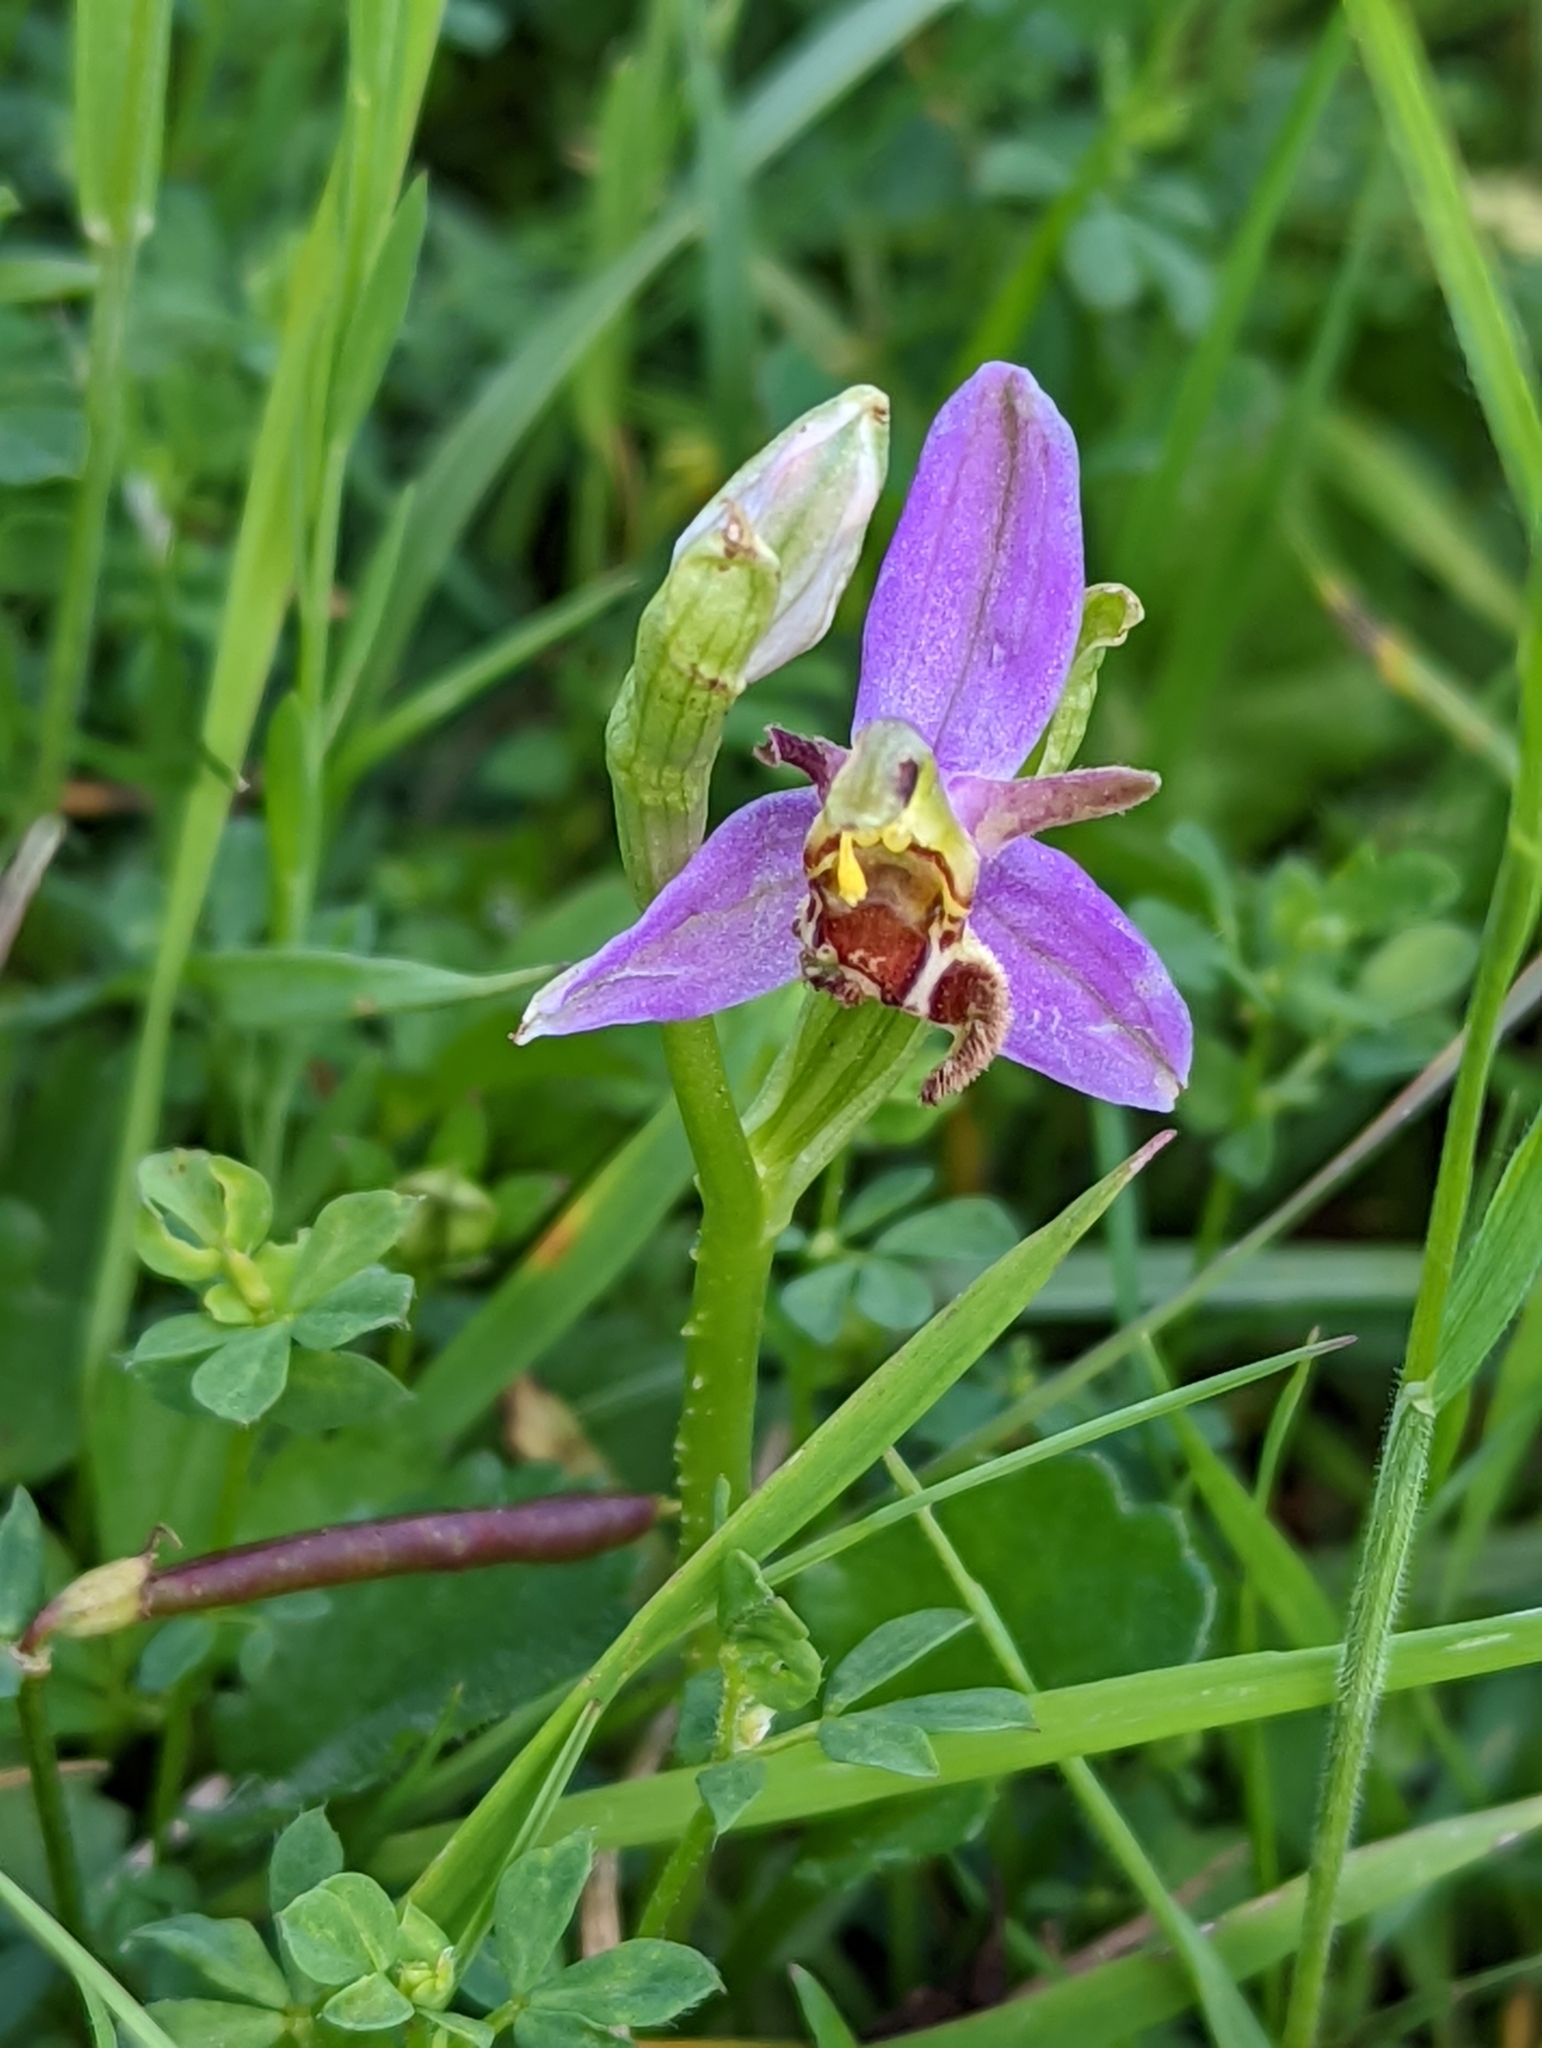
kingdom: Plantae
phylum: Tracheophyta
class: Liliopsida
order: Asparagales
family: Orchidaceae
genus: Ophrys
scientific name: Ophrys apifera
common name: Bee orchid
